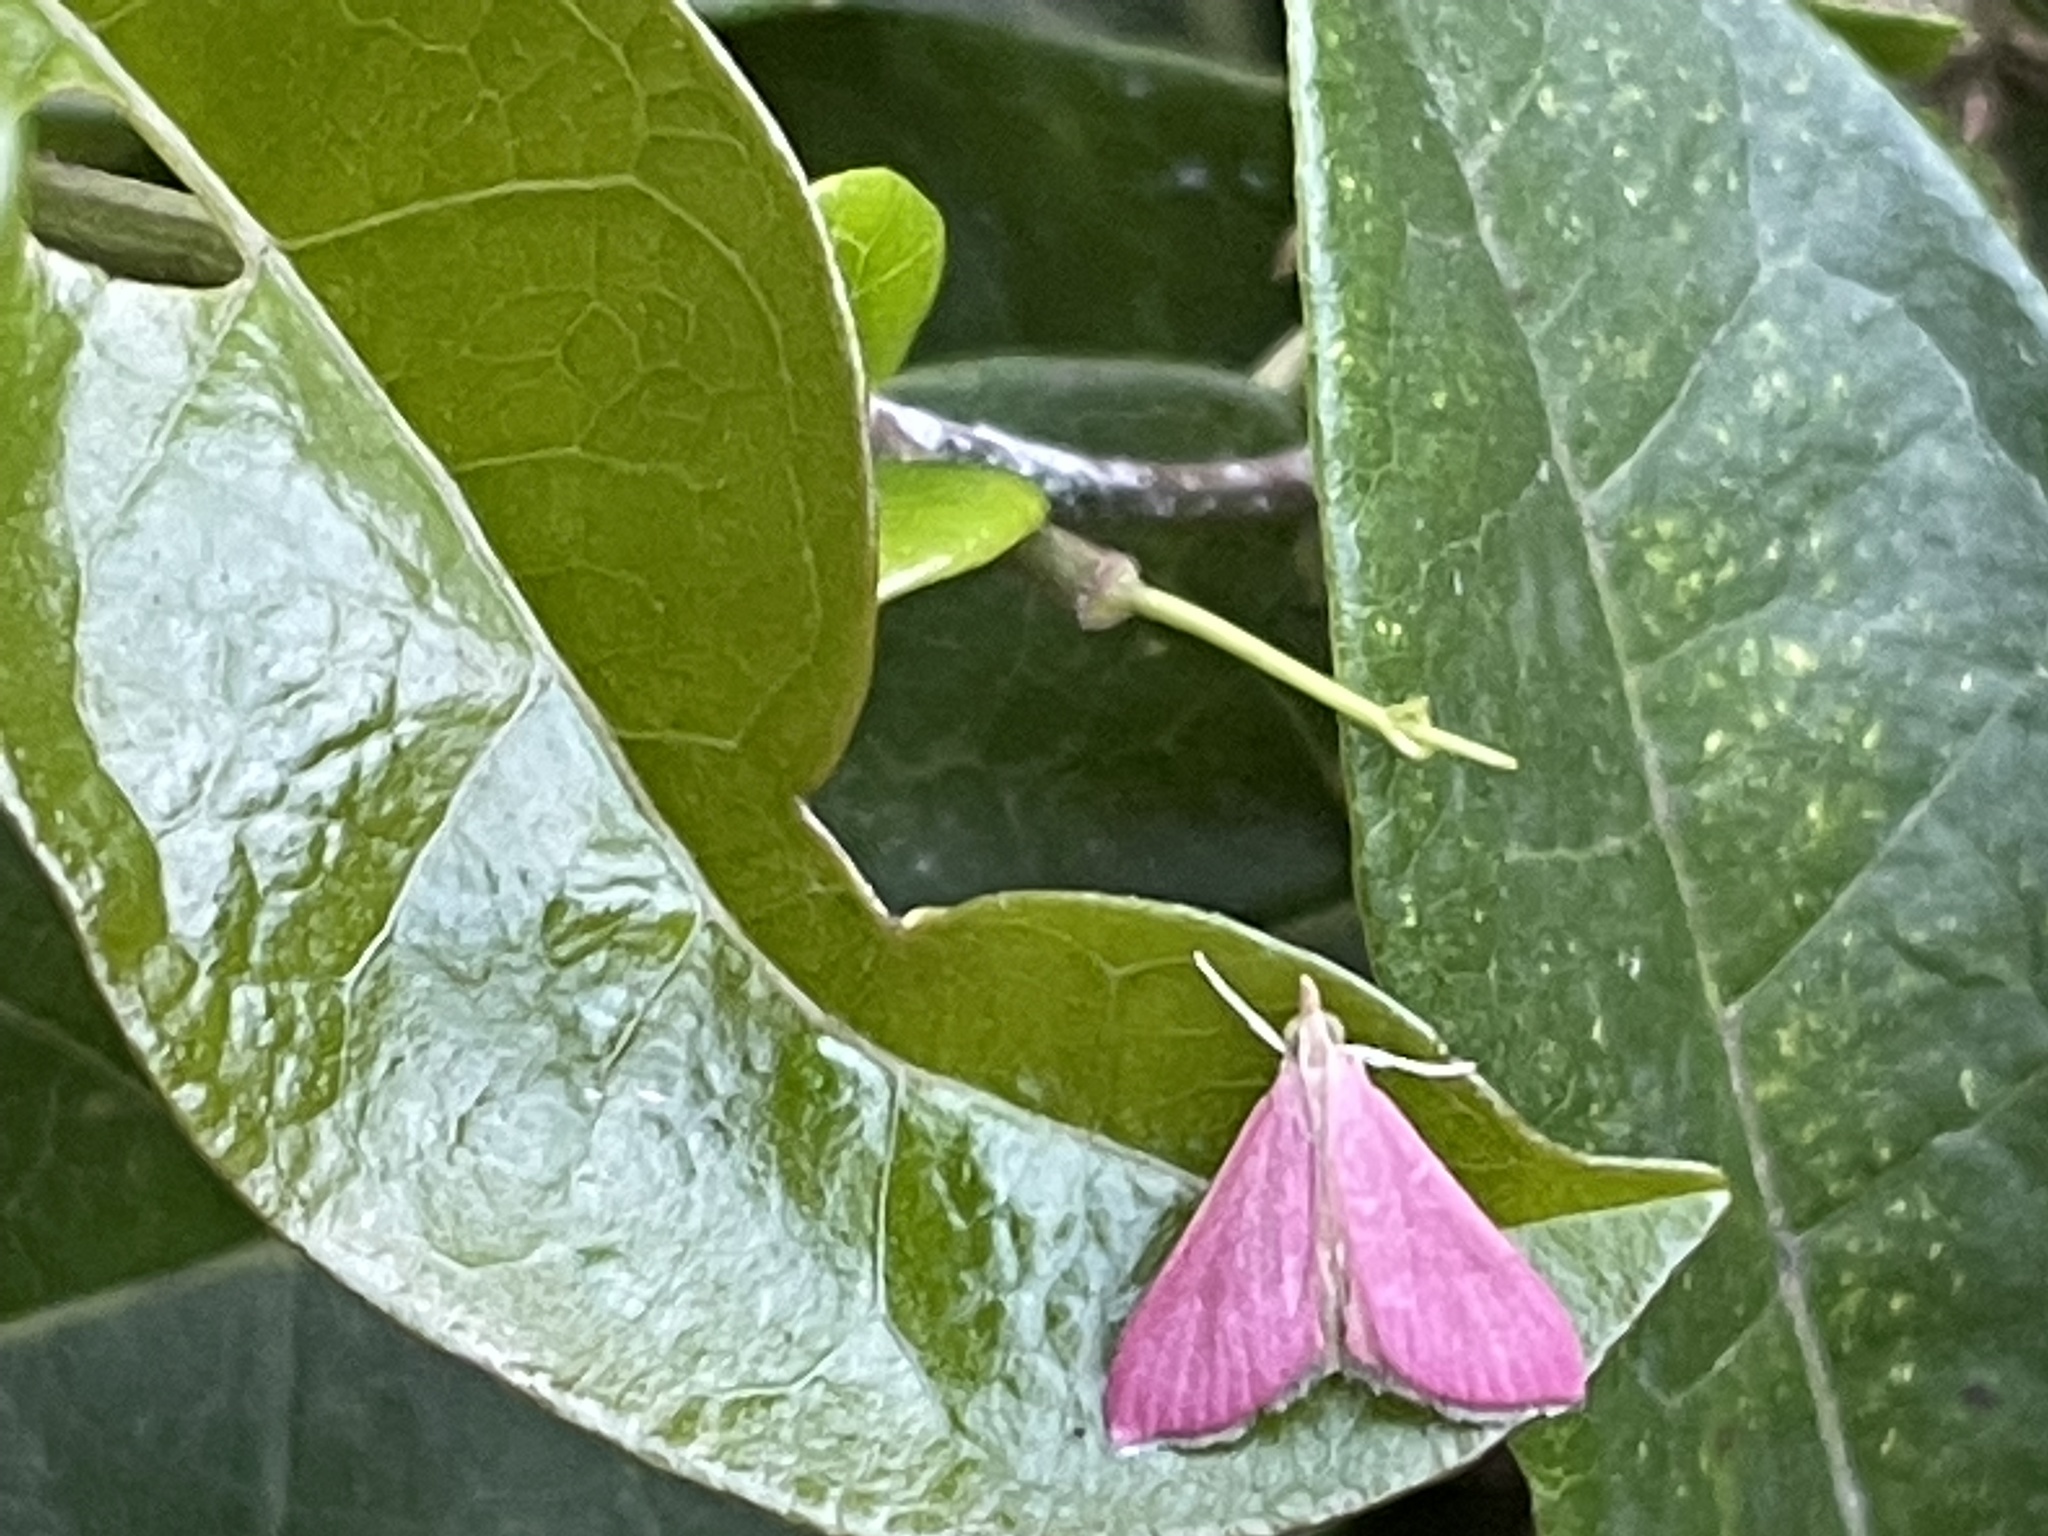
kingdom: Animalia
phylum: Arthropoda
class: Insecta
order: Lepidoptera
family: Crambidae
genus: Pyrausta
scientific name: Pyrausta inornatalis
